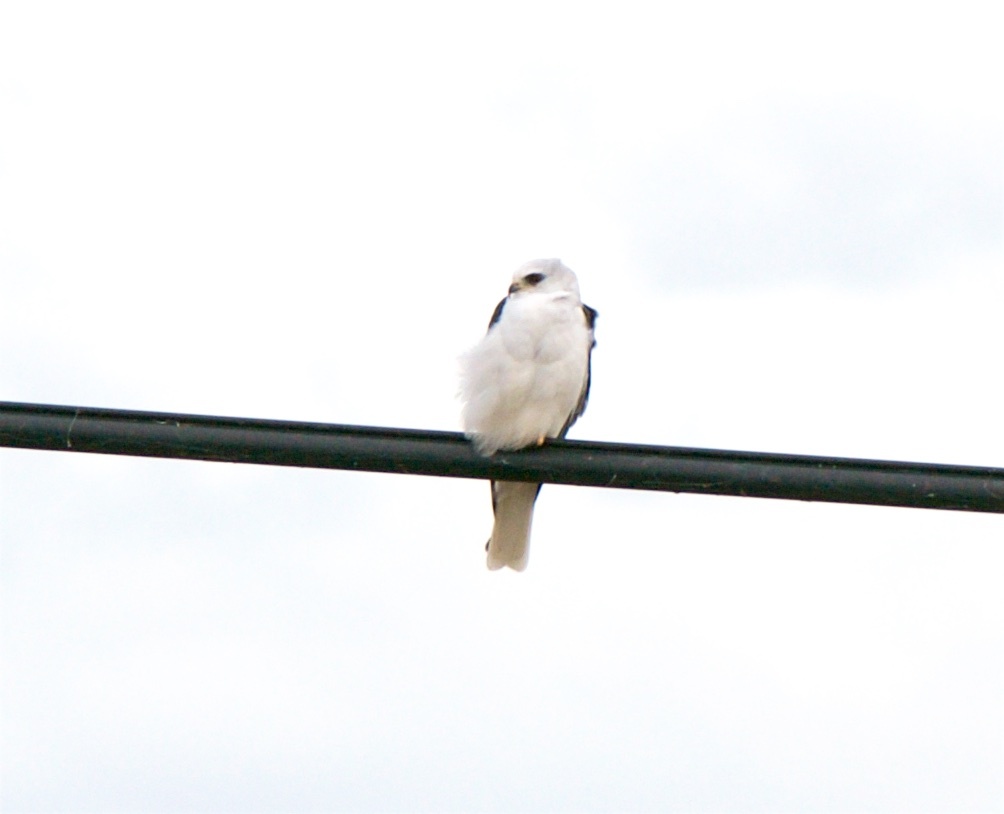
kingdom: Animalia
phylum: Chordata
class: Aves
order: Accipitriformes
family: Accipitridae
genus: Elanus
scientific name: Elanus leucurus
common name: White-tailed kite
